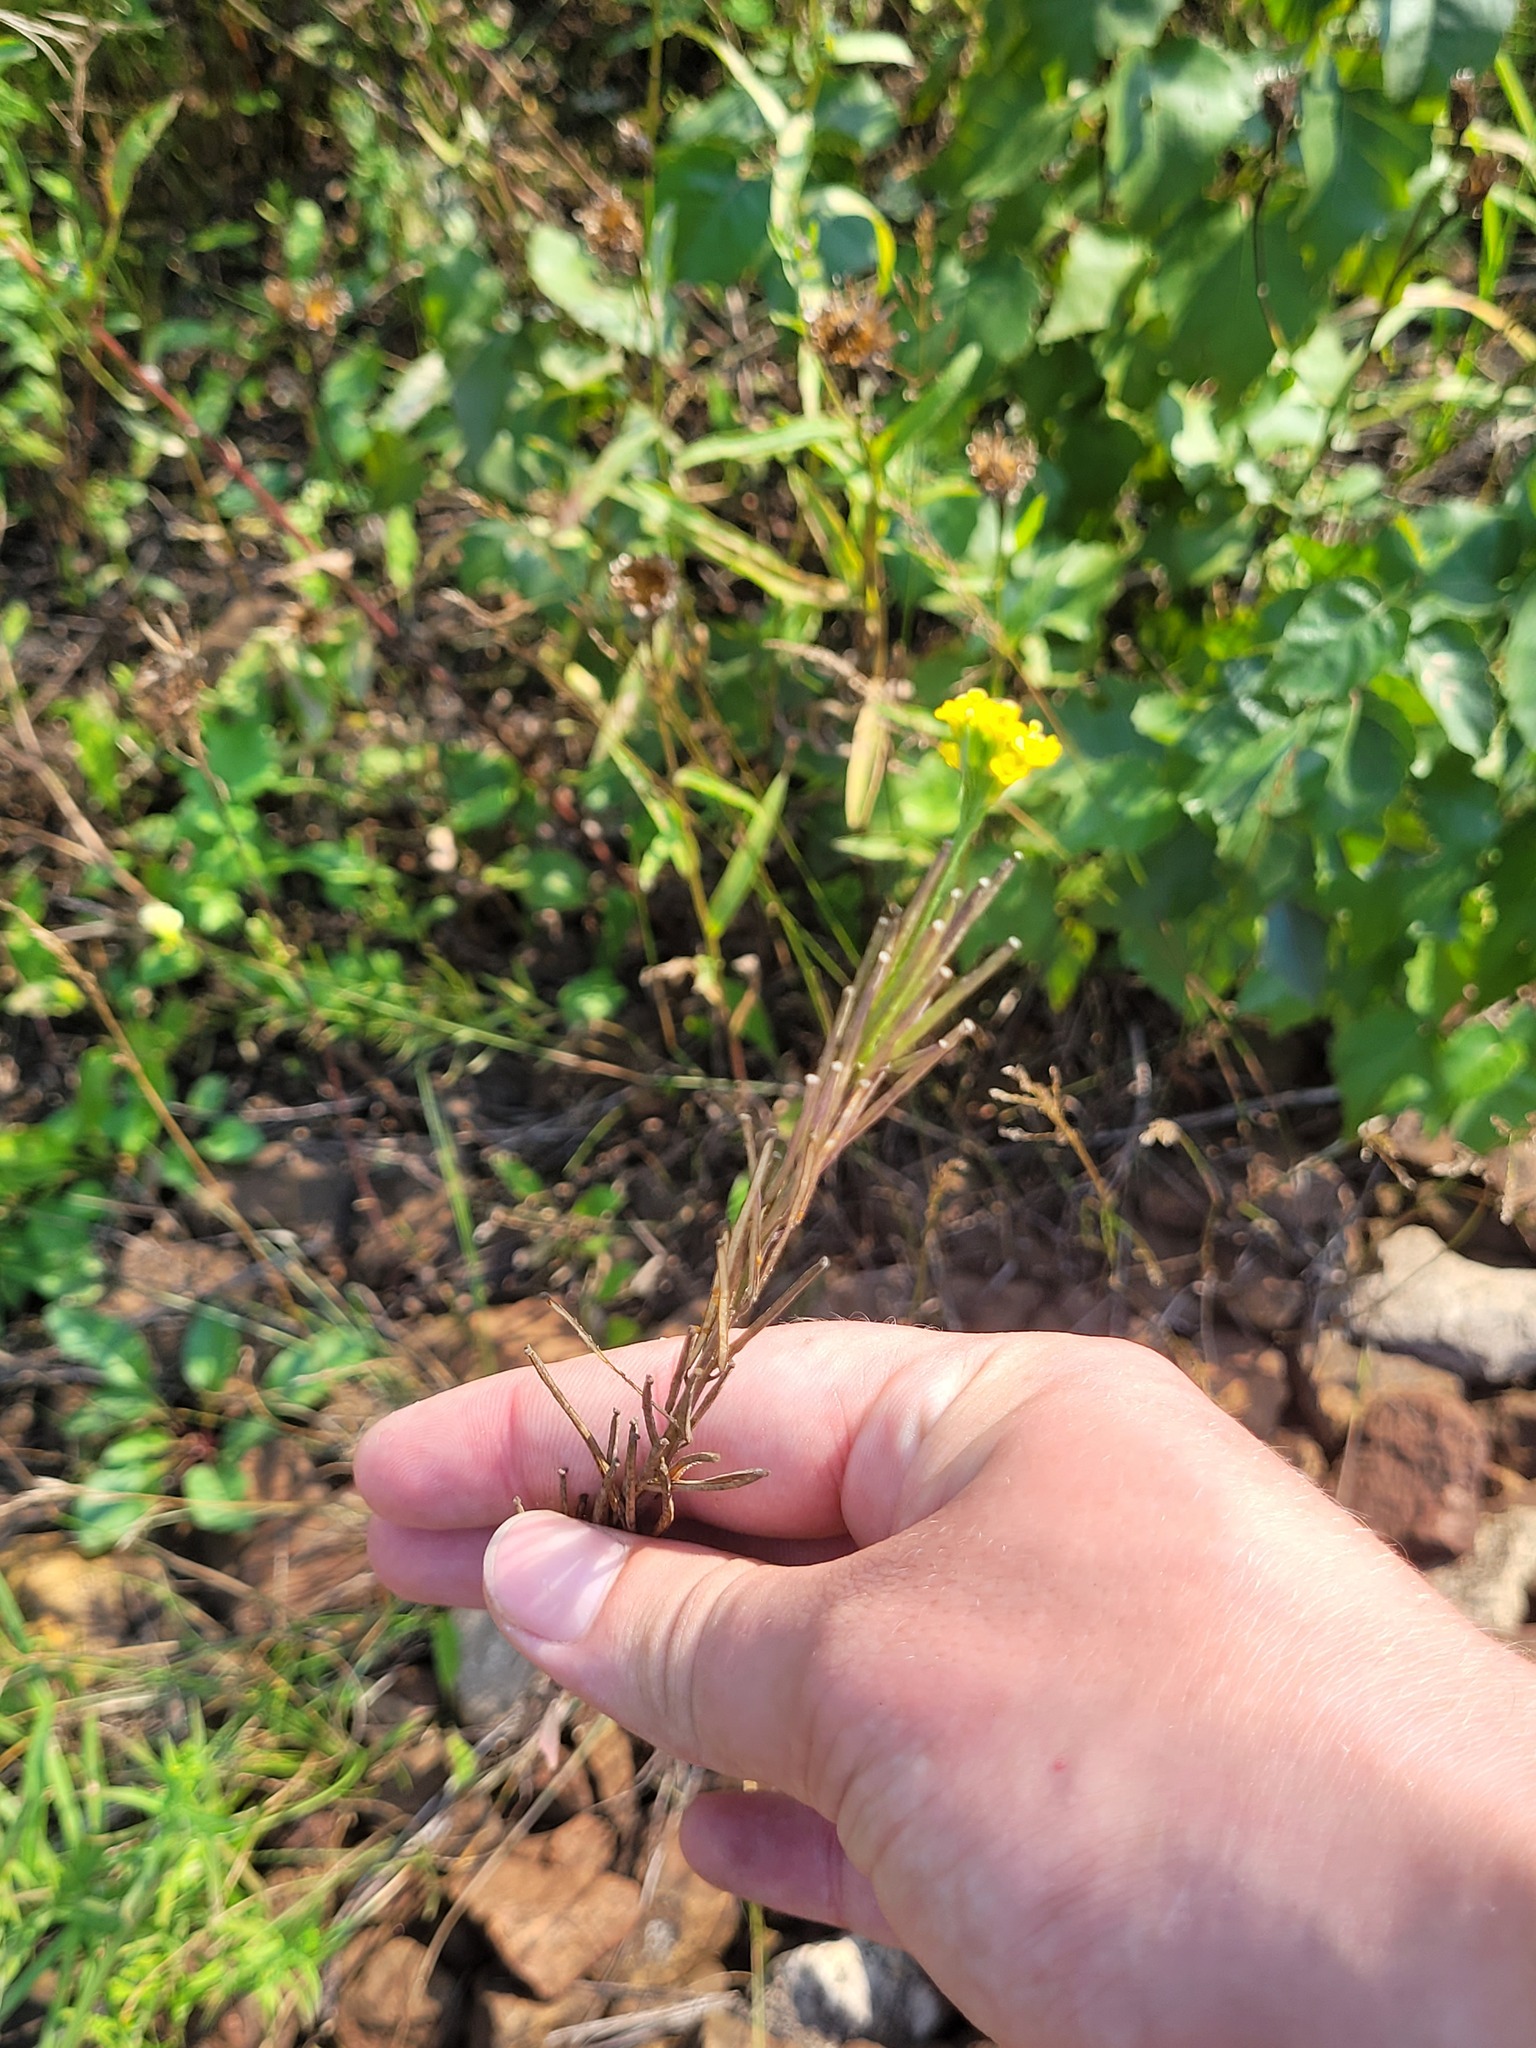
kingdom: Plantae
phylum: Tracheophyta
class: Magnoliopsida
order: Brassicales
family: Brassicaceae
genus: Erysimum
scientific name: Erysimum hieraciifolium
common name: European wallflower
